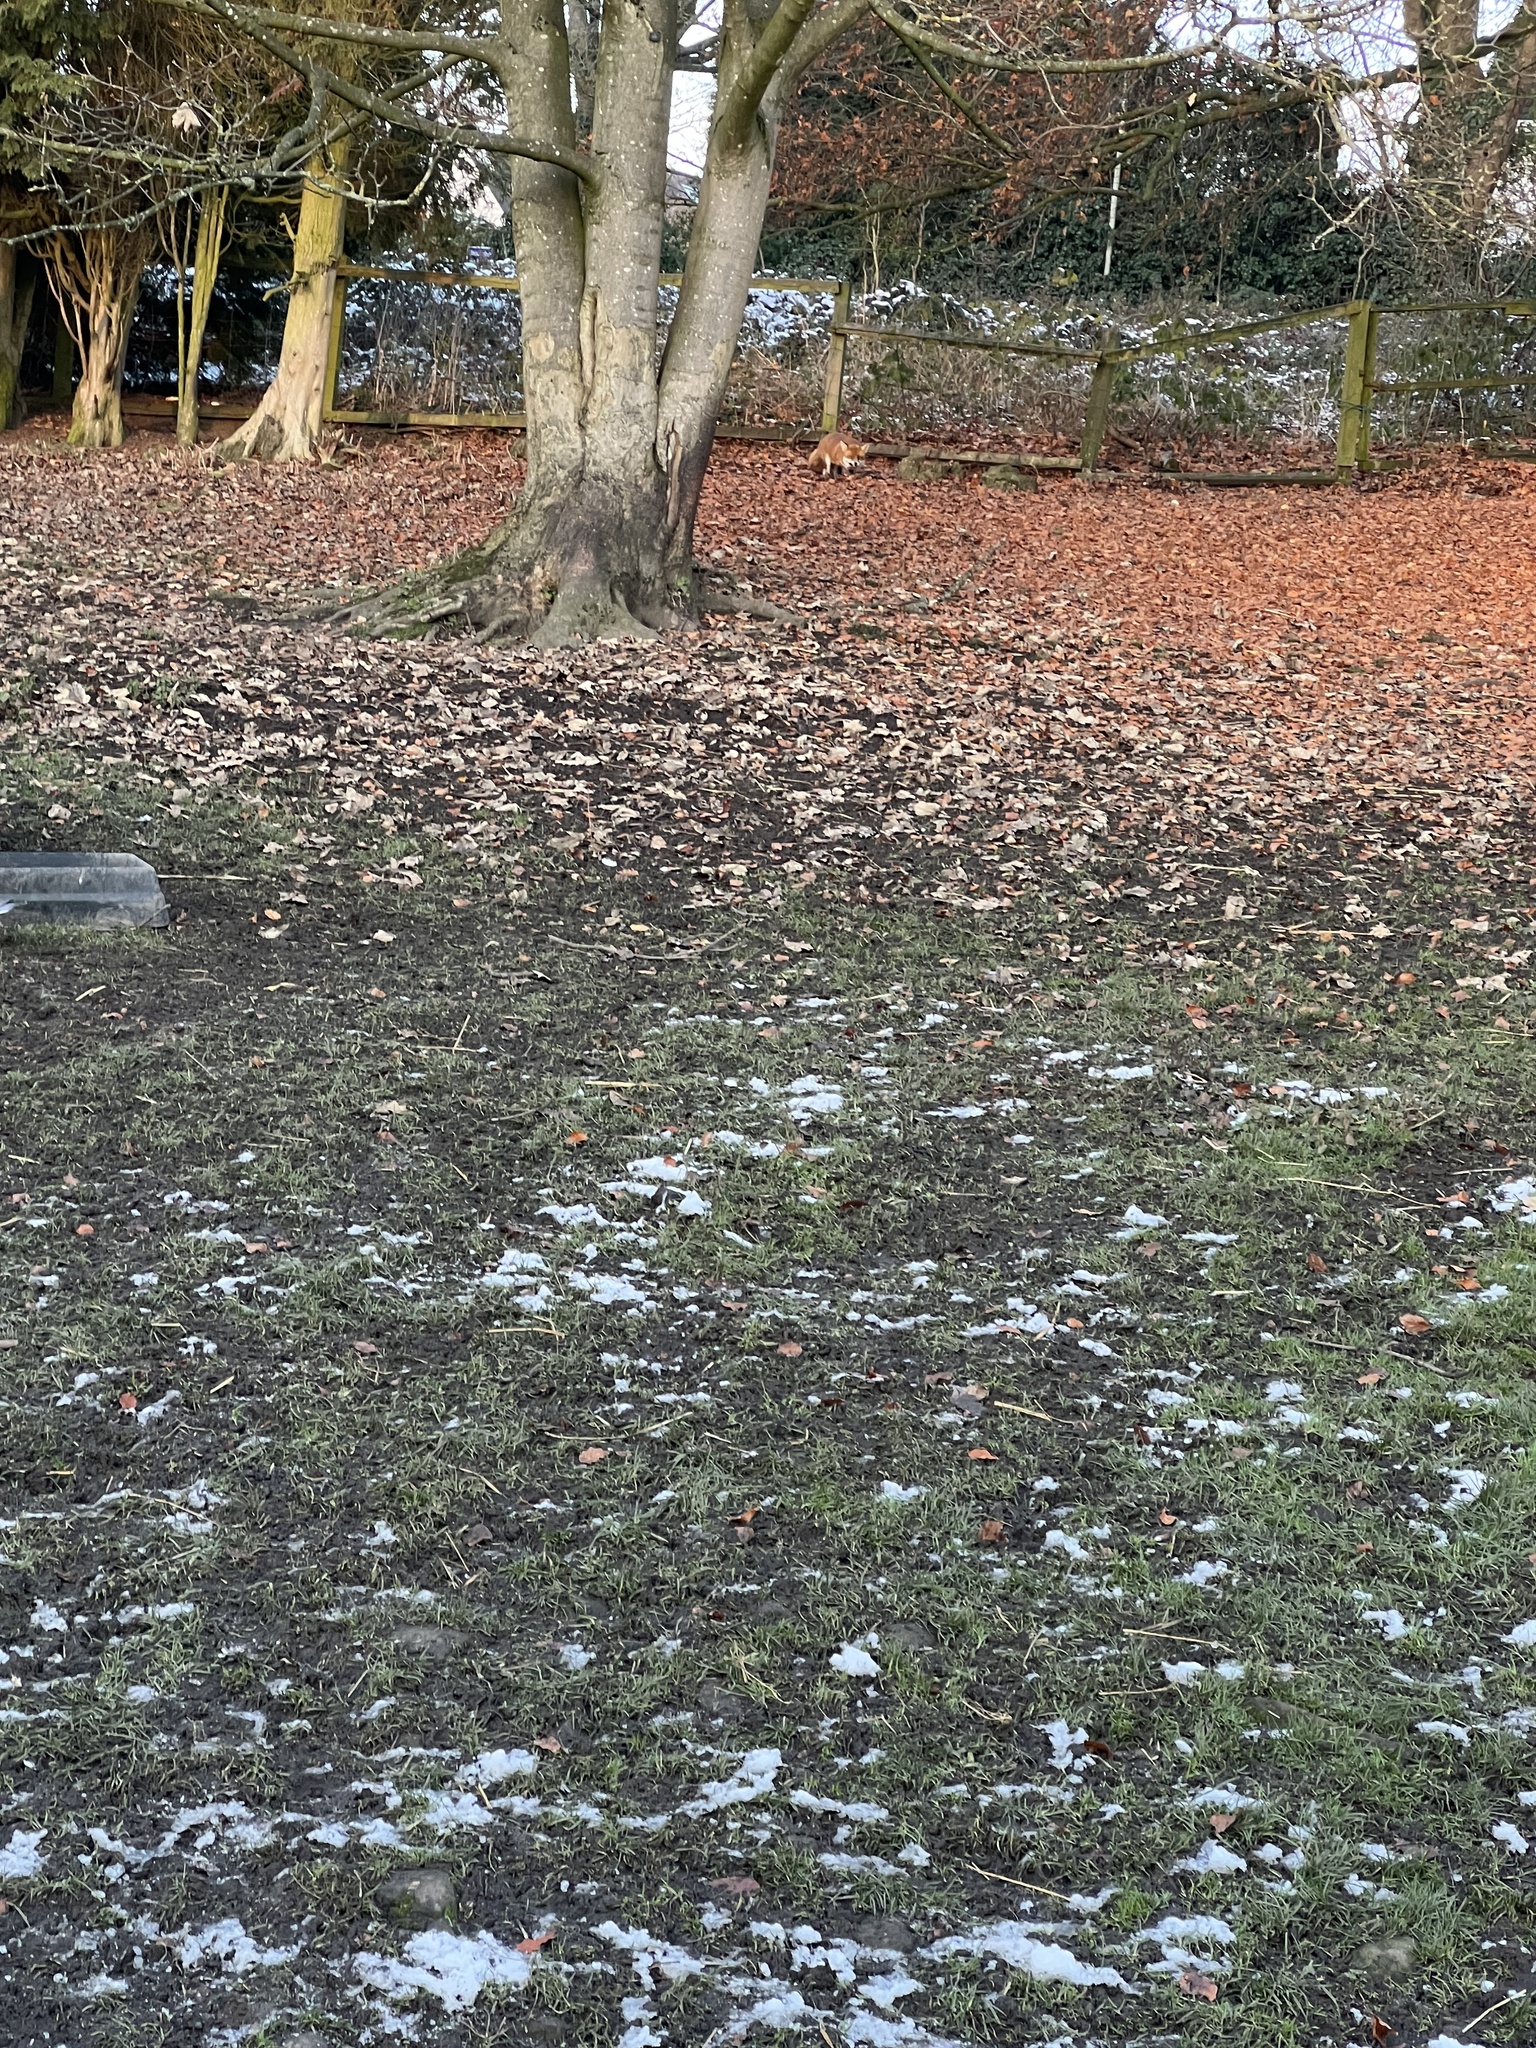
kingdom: Animalia
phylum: Chordata
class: Mammalia
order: Carnivora
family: Canidae
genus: Vulpes
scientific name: Vulpes vulpes
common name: Red fox
